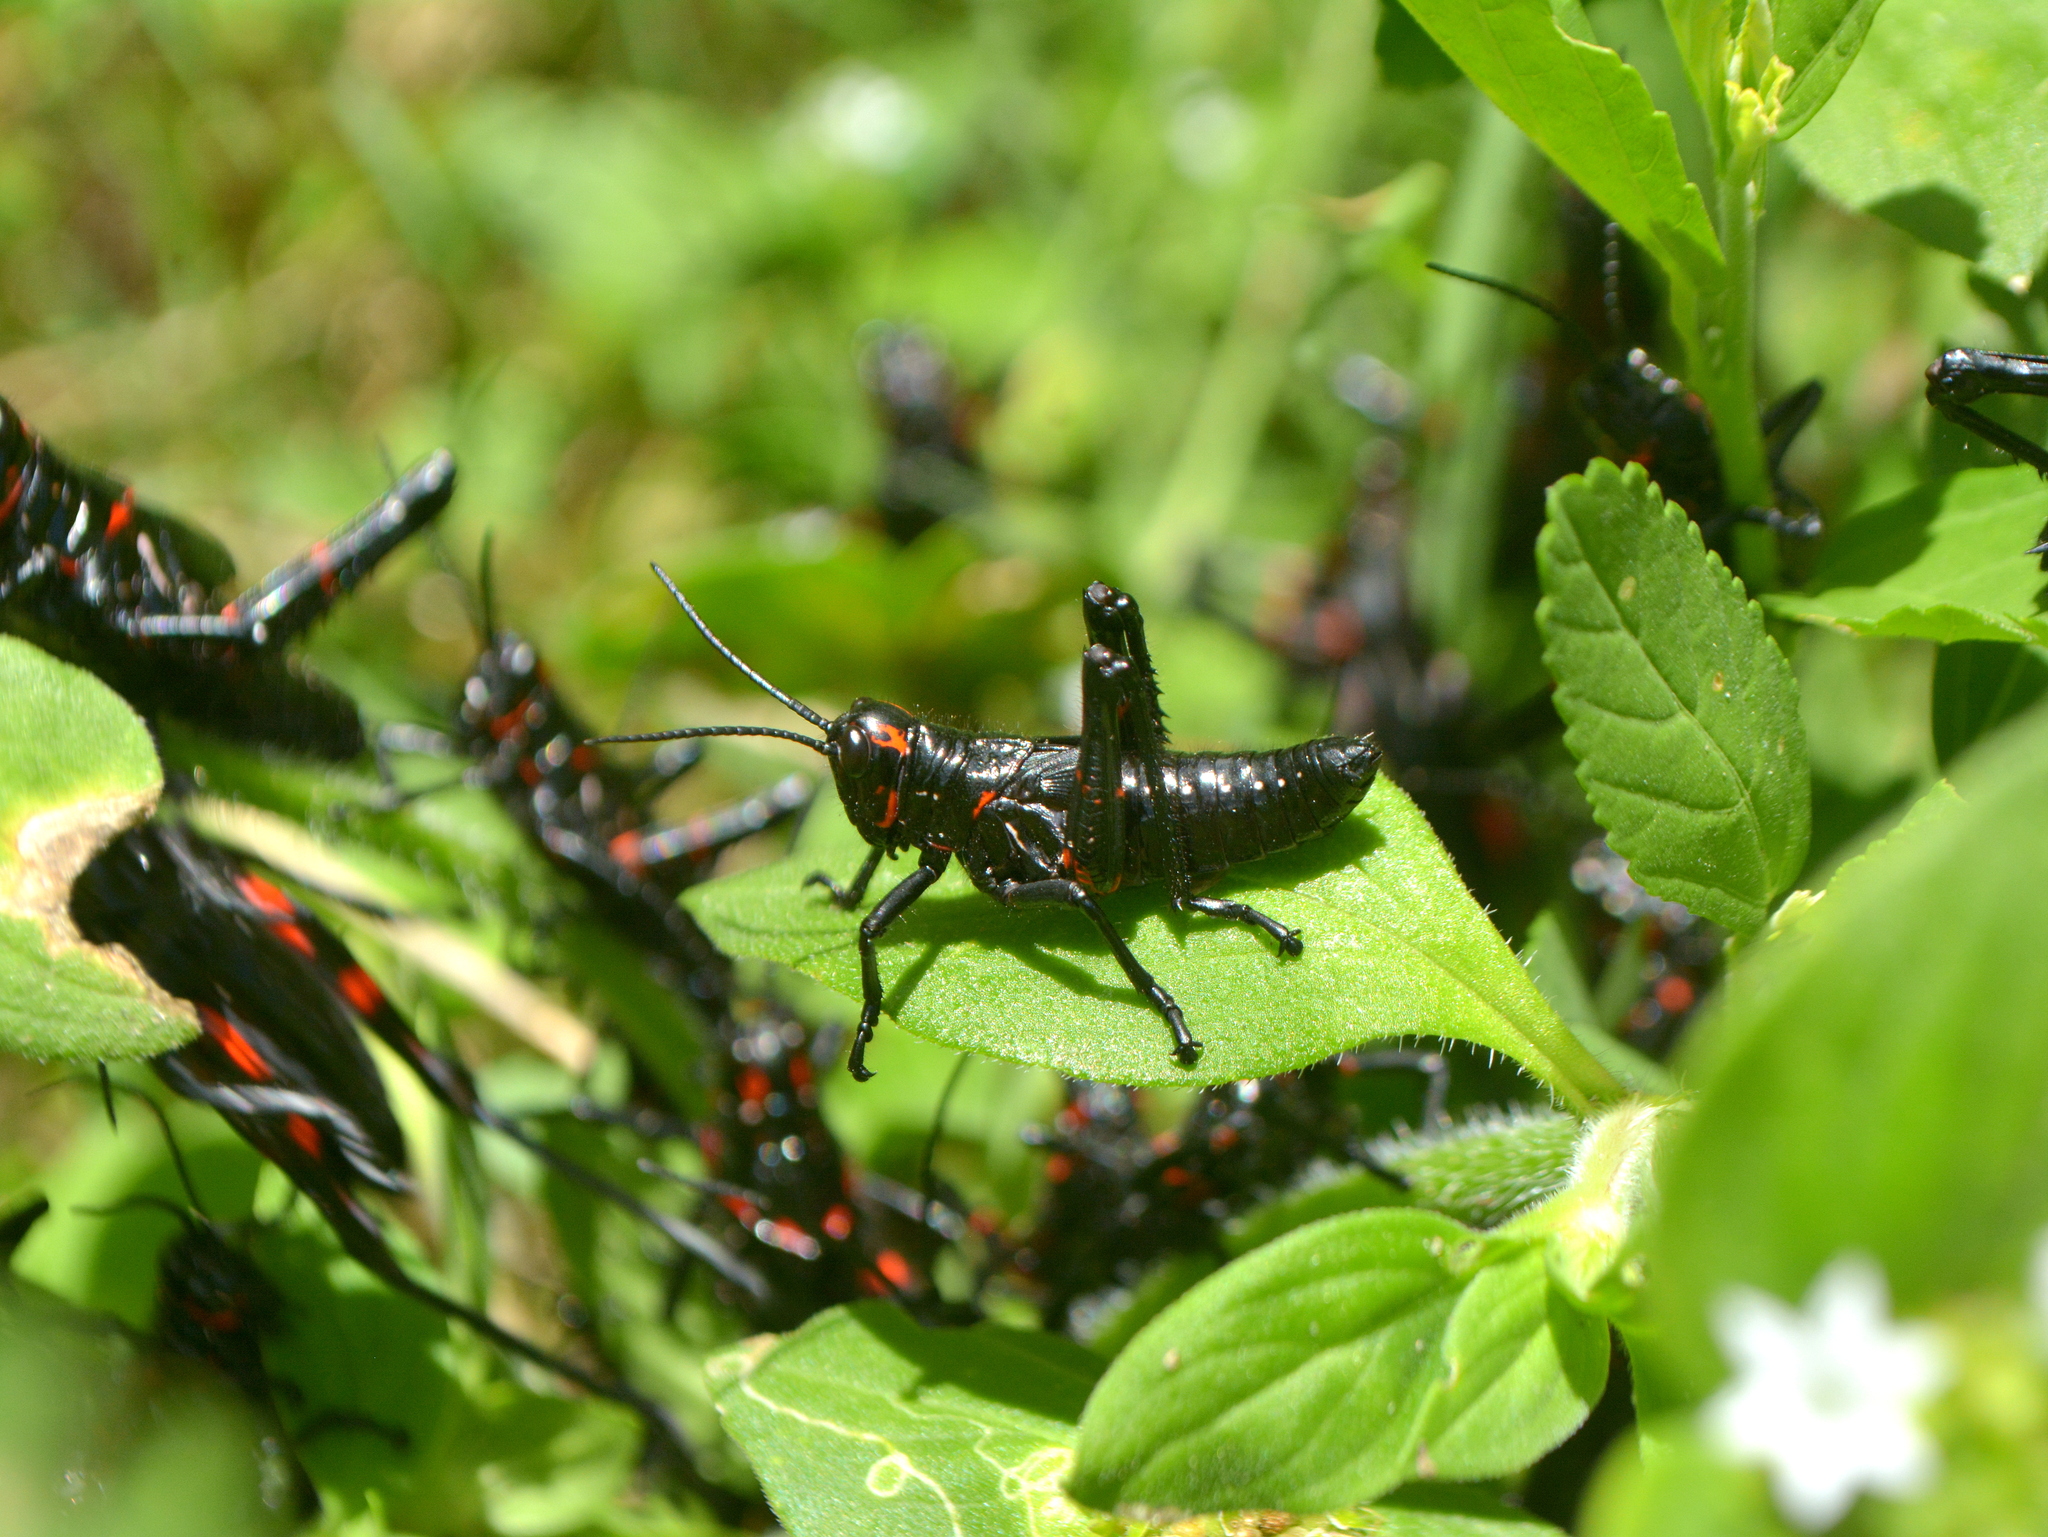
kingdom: Animalia
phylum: Arthropoda
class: Insecta
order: Orthoptera
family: Romaleidae
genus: Chromacris
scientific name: Chromacris speciosa
